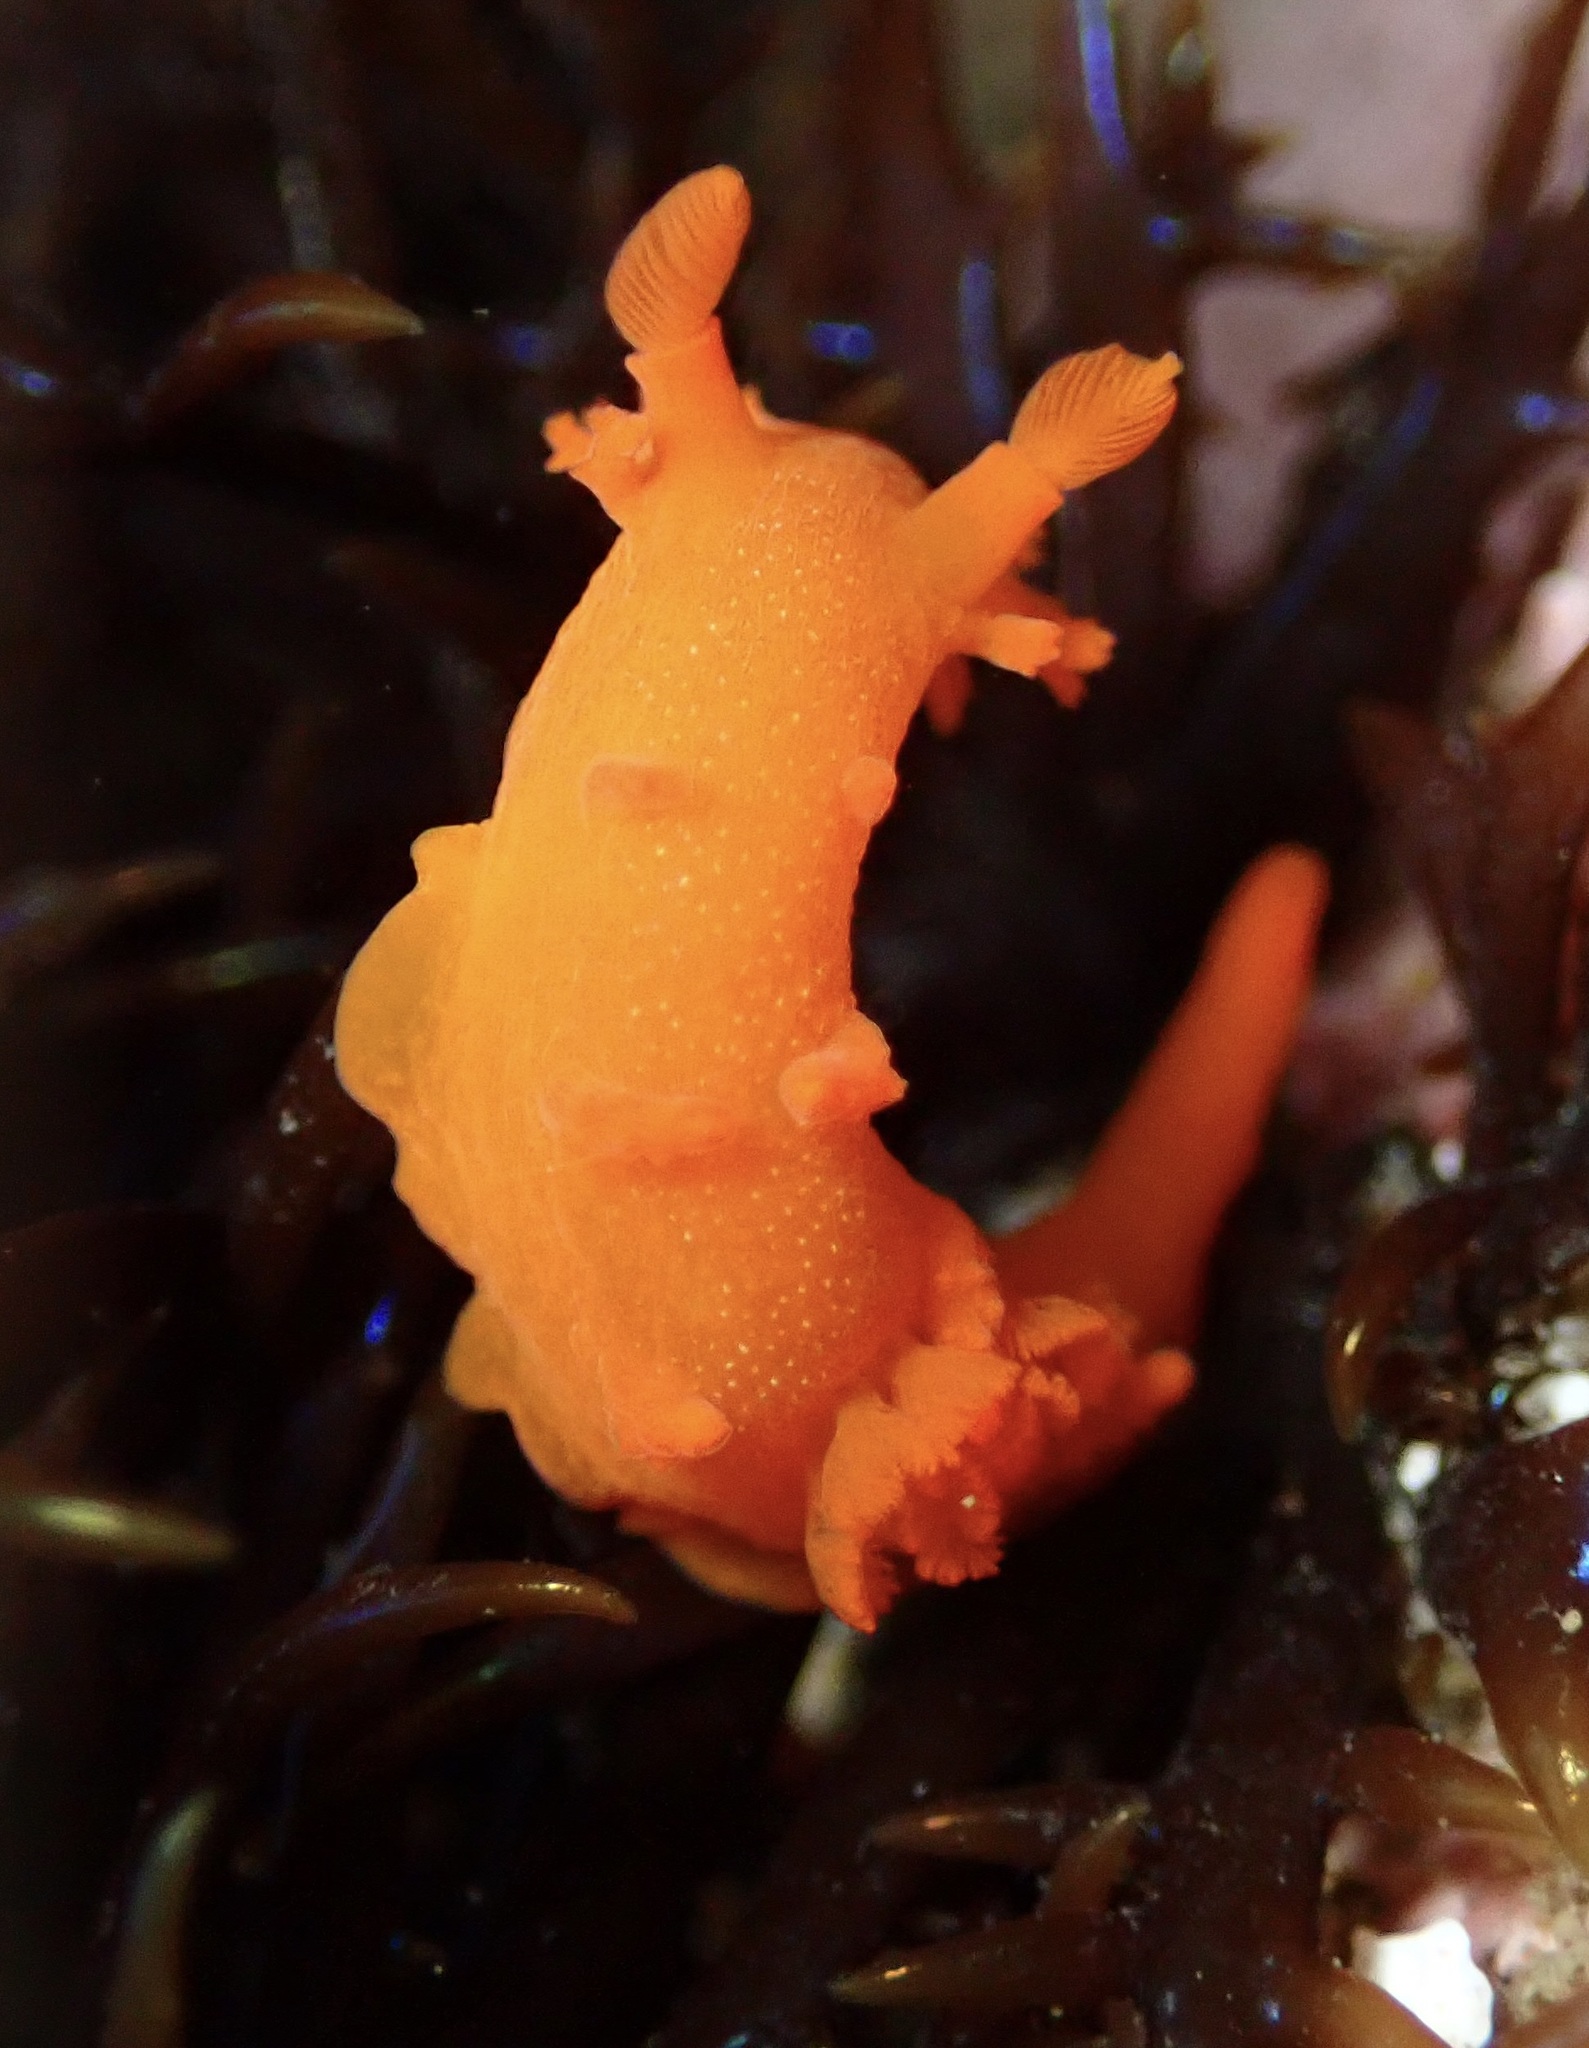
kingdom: Animalia
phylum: Mollusca
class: Gastropoda
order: Nudibranchia
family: Polyceridae
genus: Triopha
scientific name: Triopha maculata
